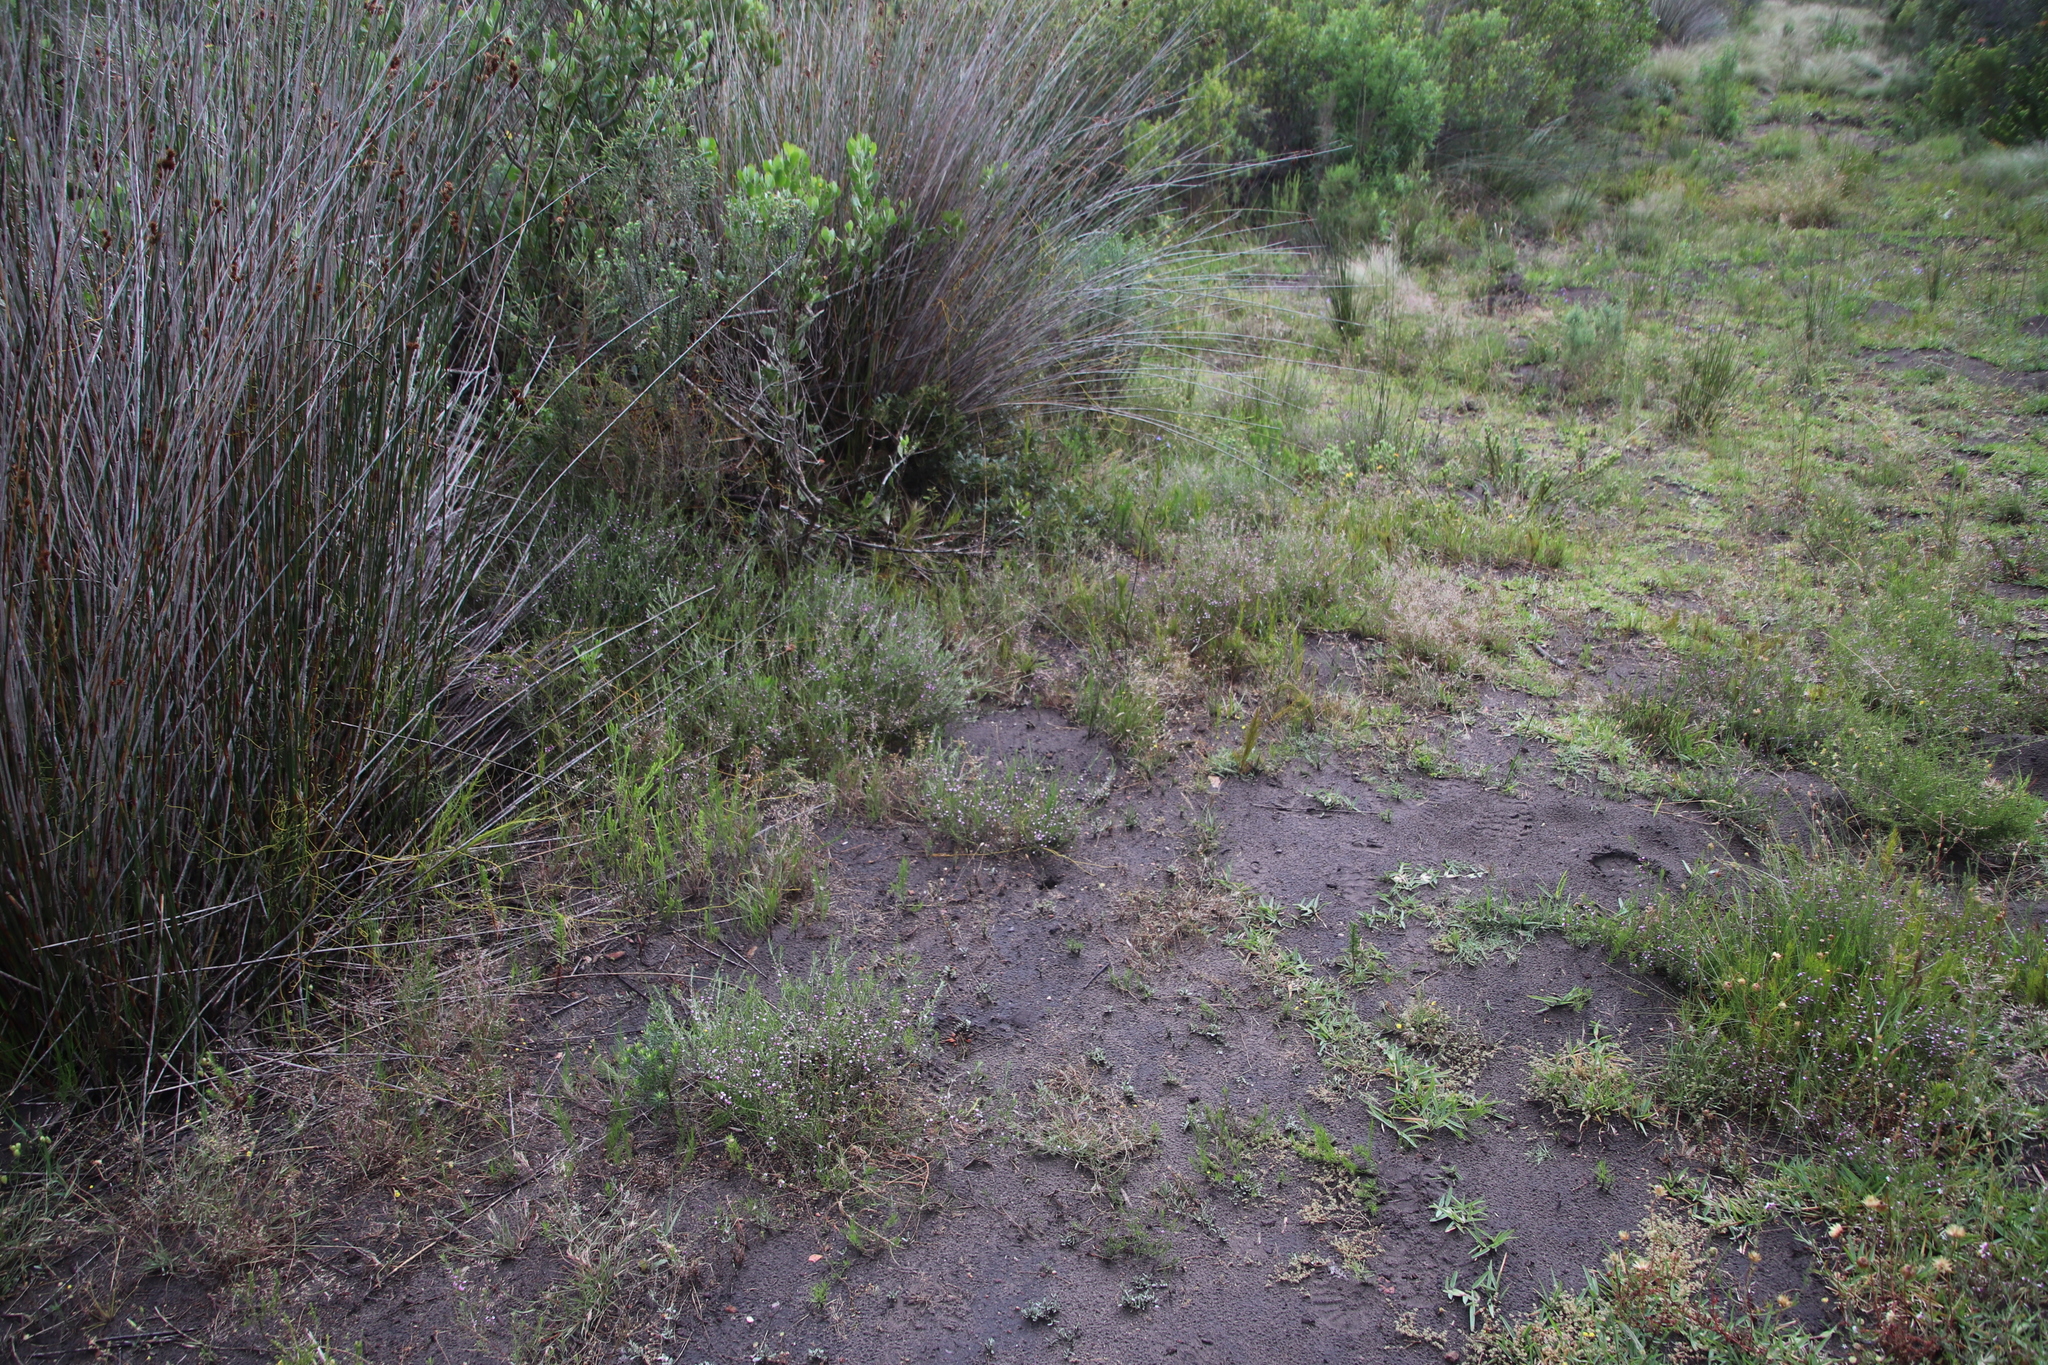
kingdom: Plantae
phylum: Tracheophyta
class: Liliopsida
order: Poales
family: Poaceae
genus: Stenotaphrum
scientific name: Stenotaphrum secundatum
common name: St. augustine grass
